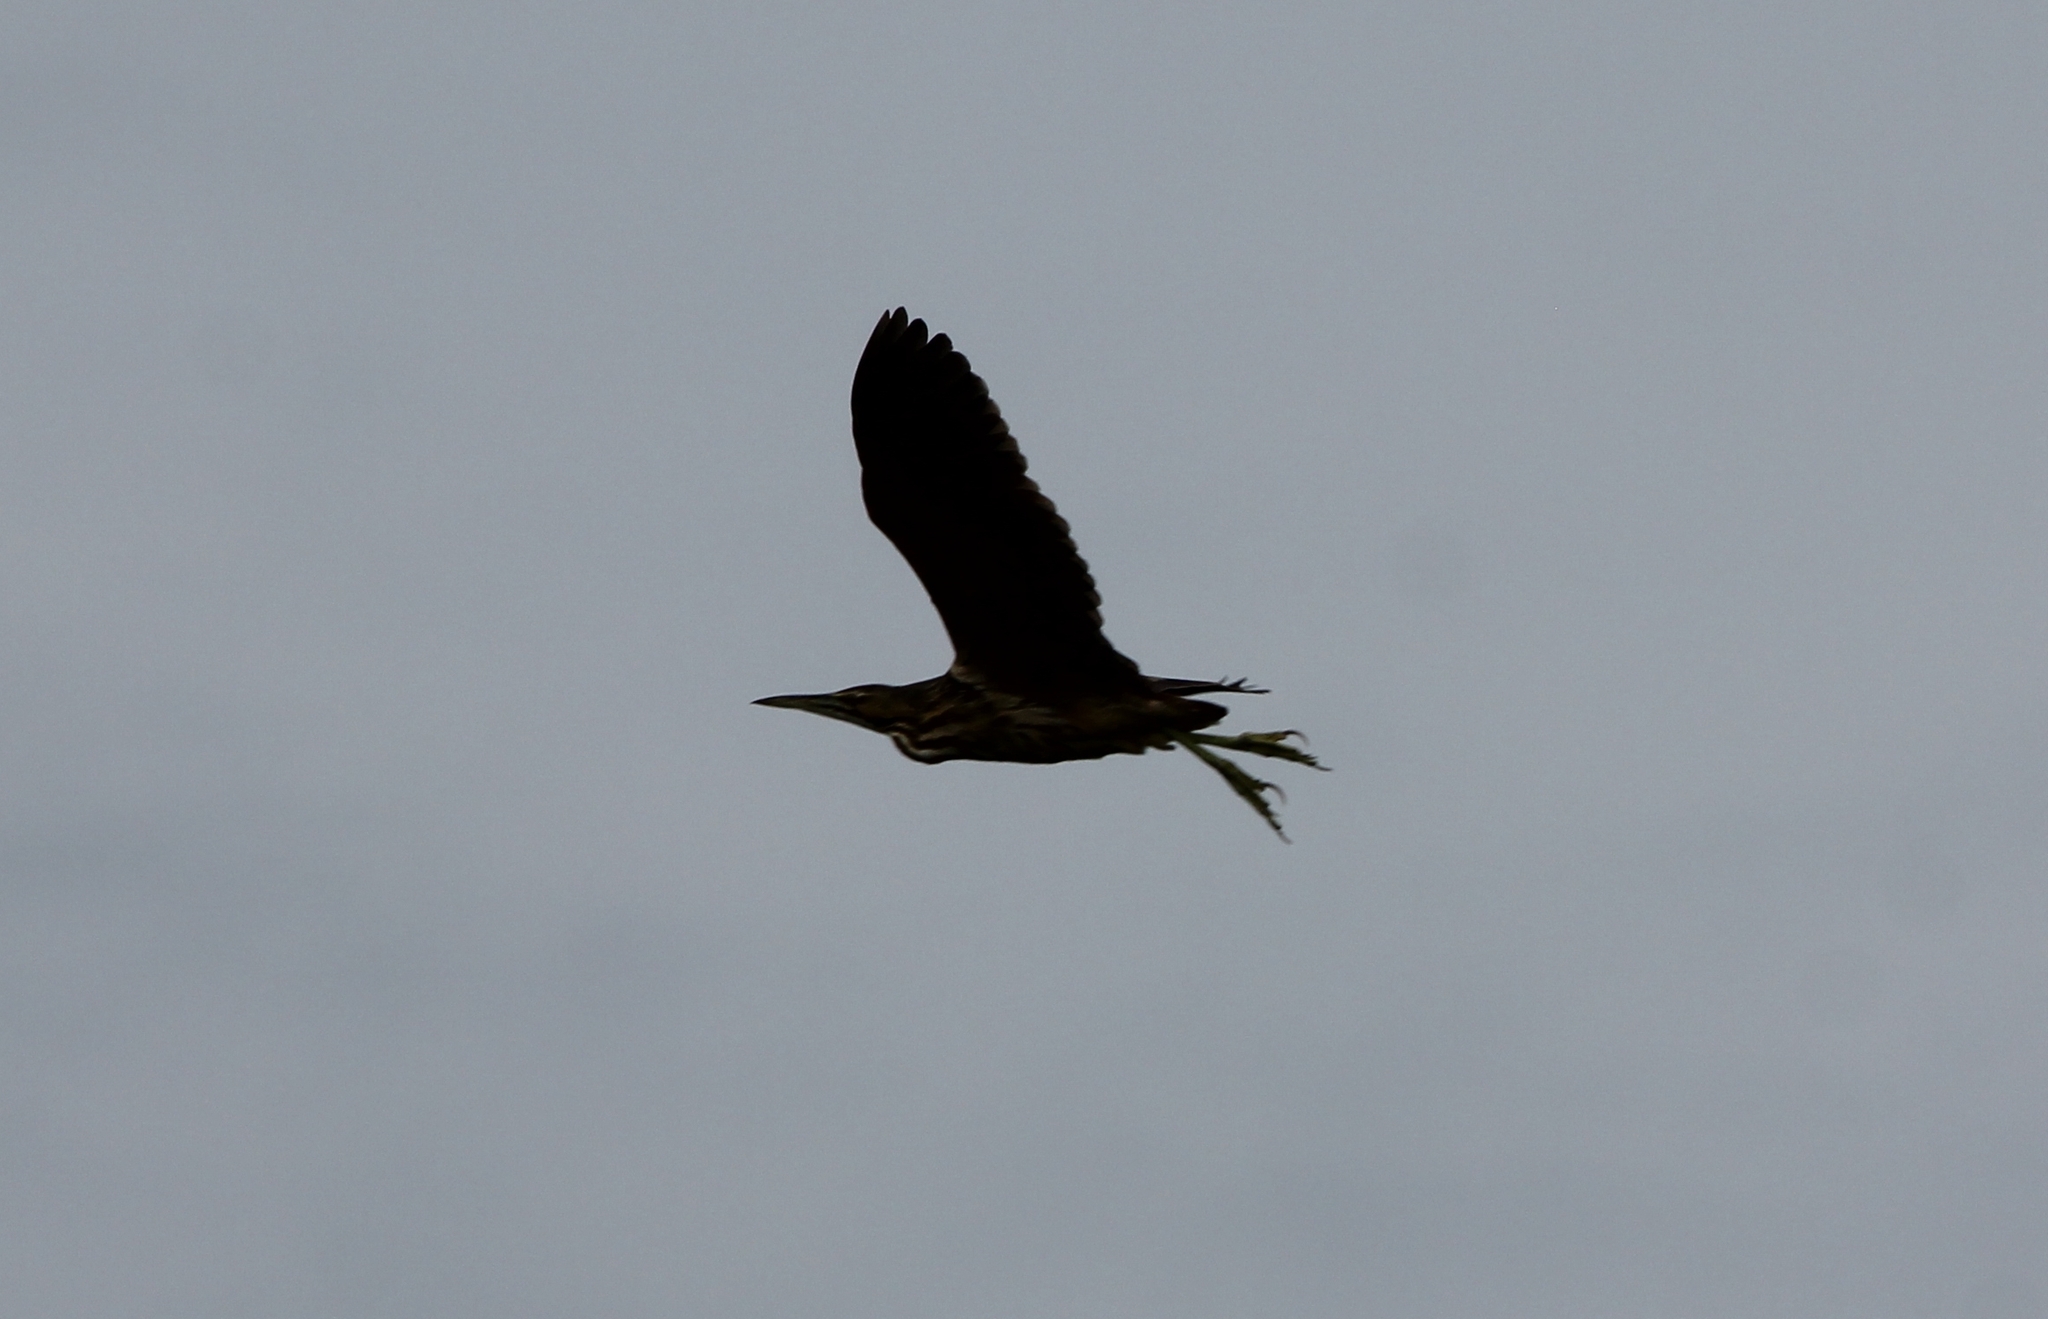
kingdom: Animalia
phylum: Chordata
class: Aves
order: Pelecaniformes
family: Ardeidae
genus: Botaurus
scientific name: Botaurus lentiginosus
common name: American bittern
